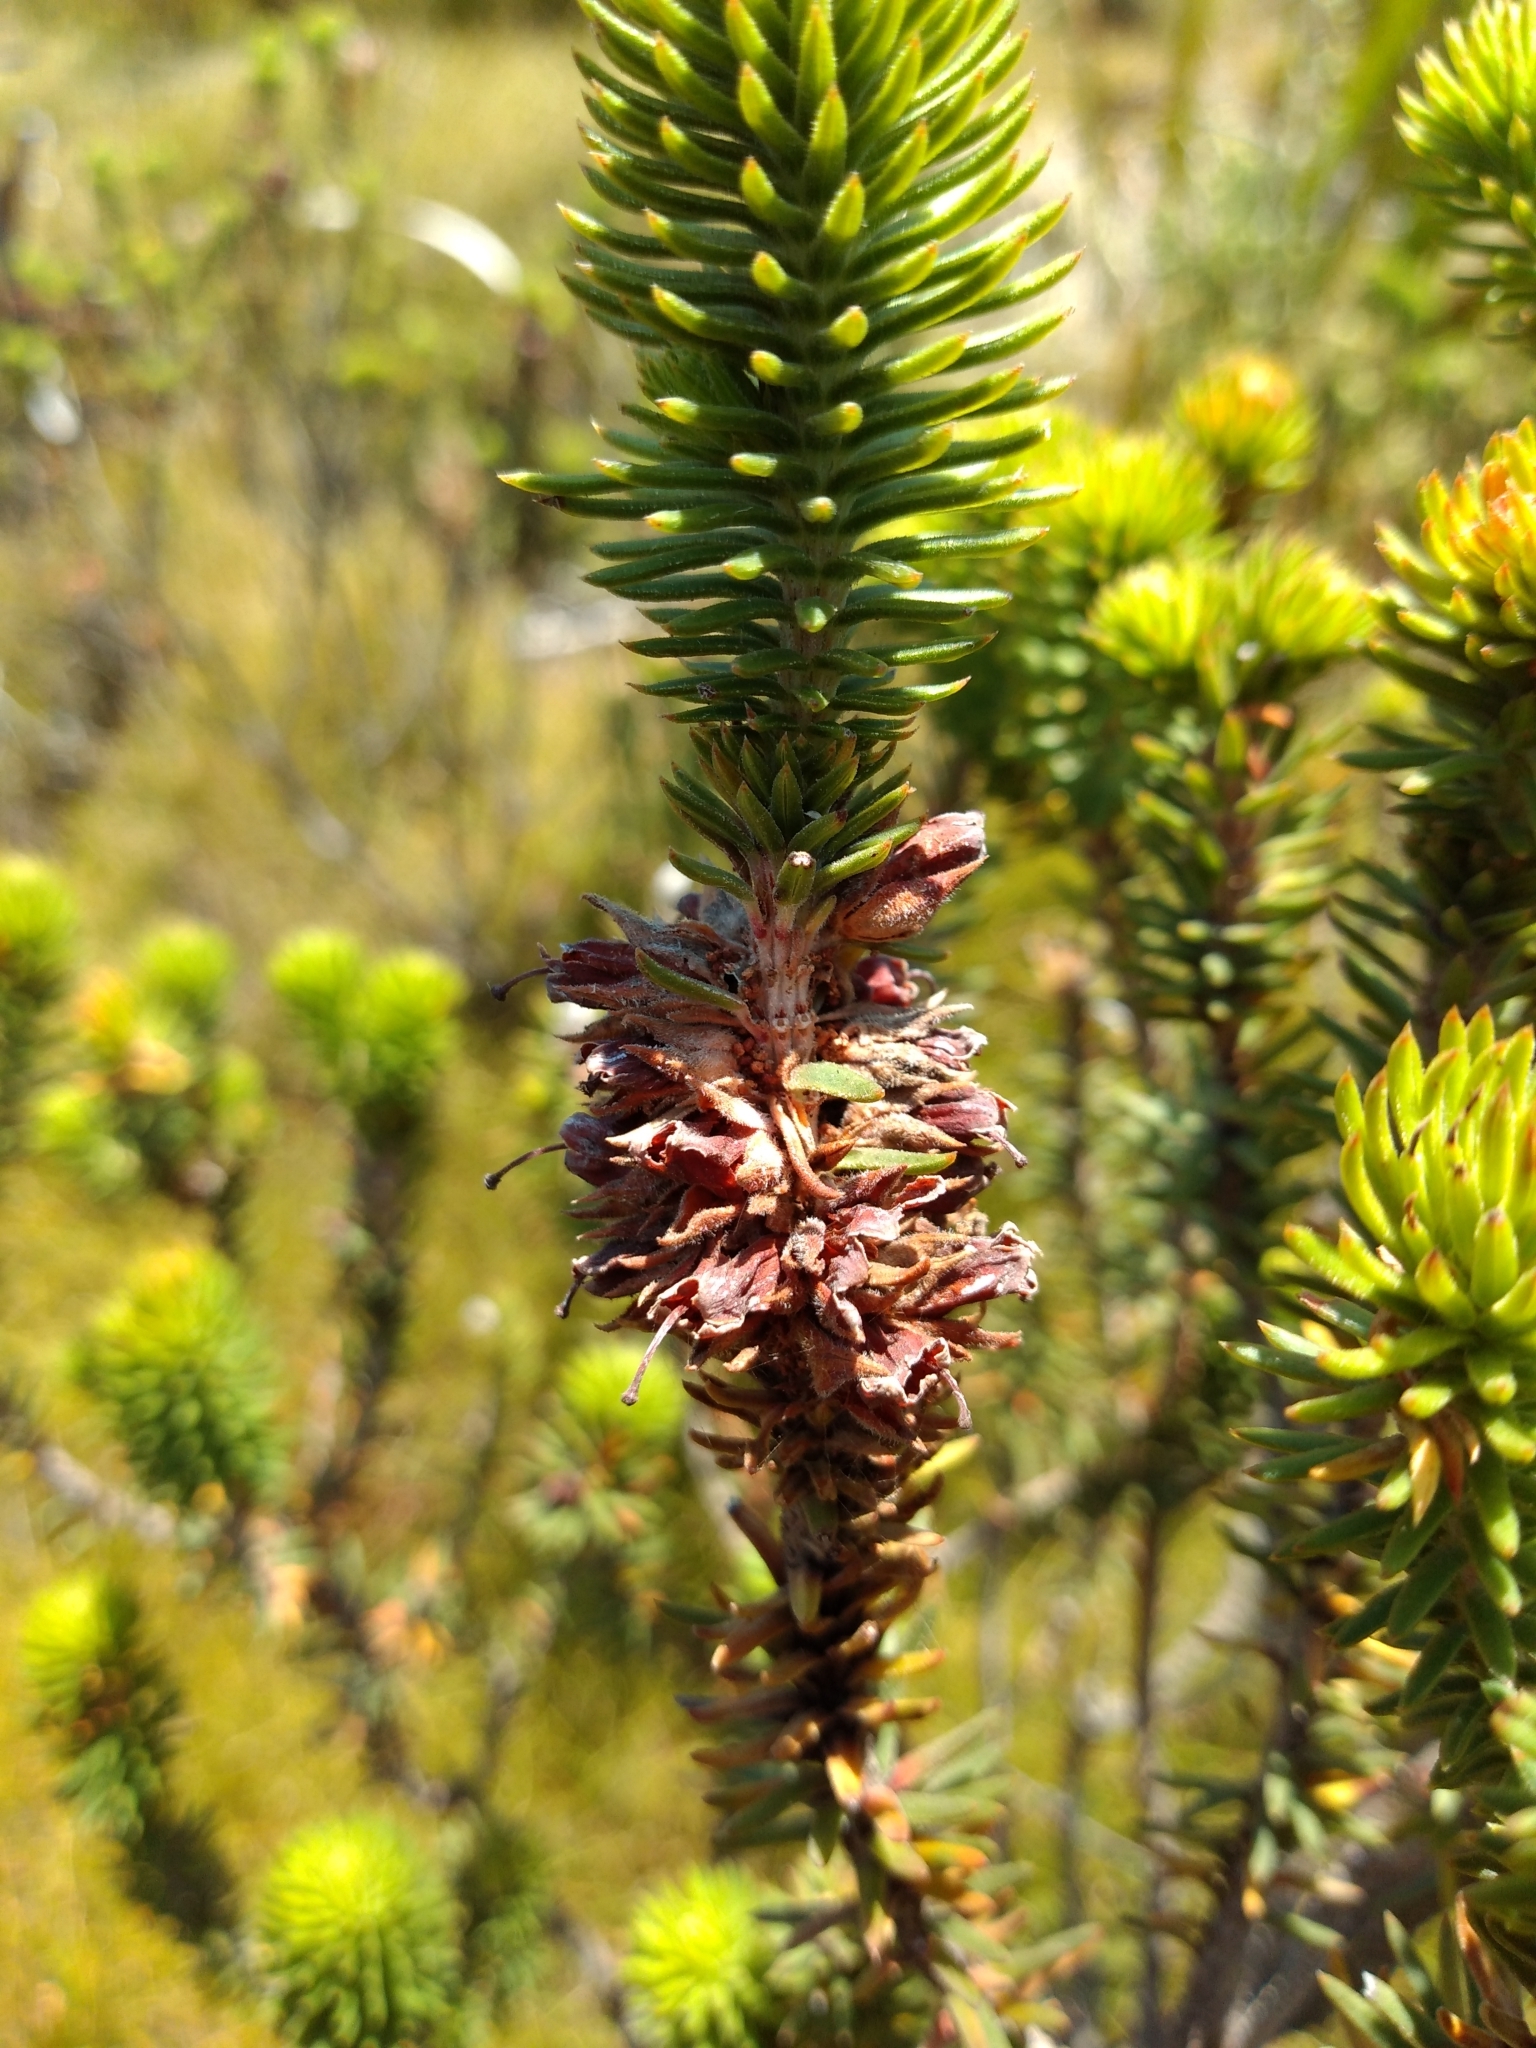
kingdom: Plantae
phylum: Tracheophyta
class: Magnoliopsida
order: Ericales
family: Ericaceae
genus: Erica
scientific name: Erica abietina
